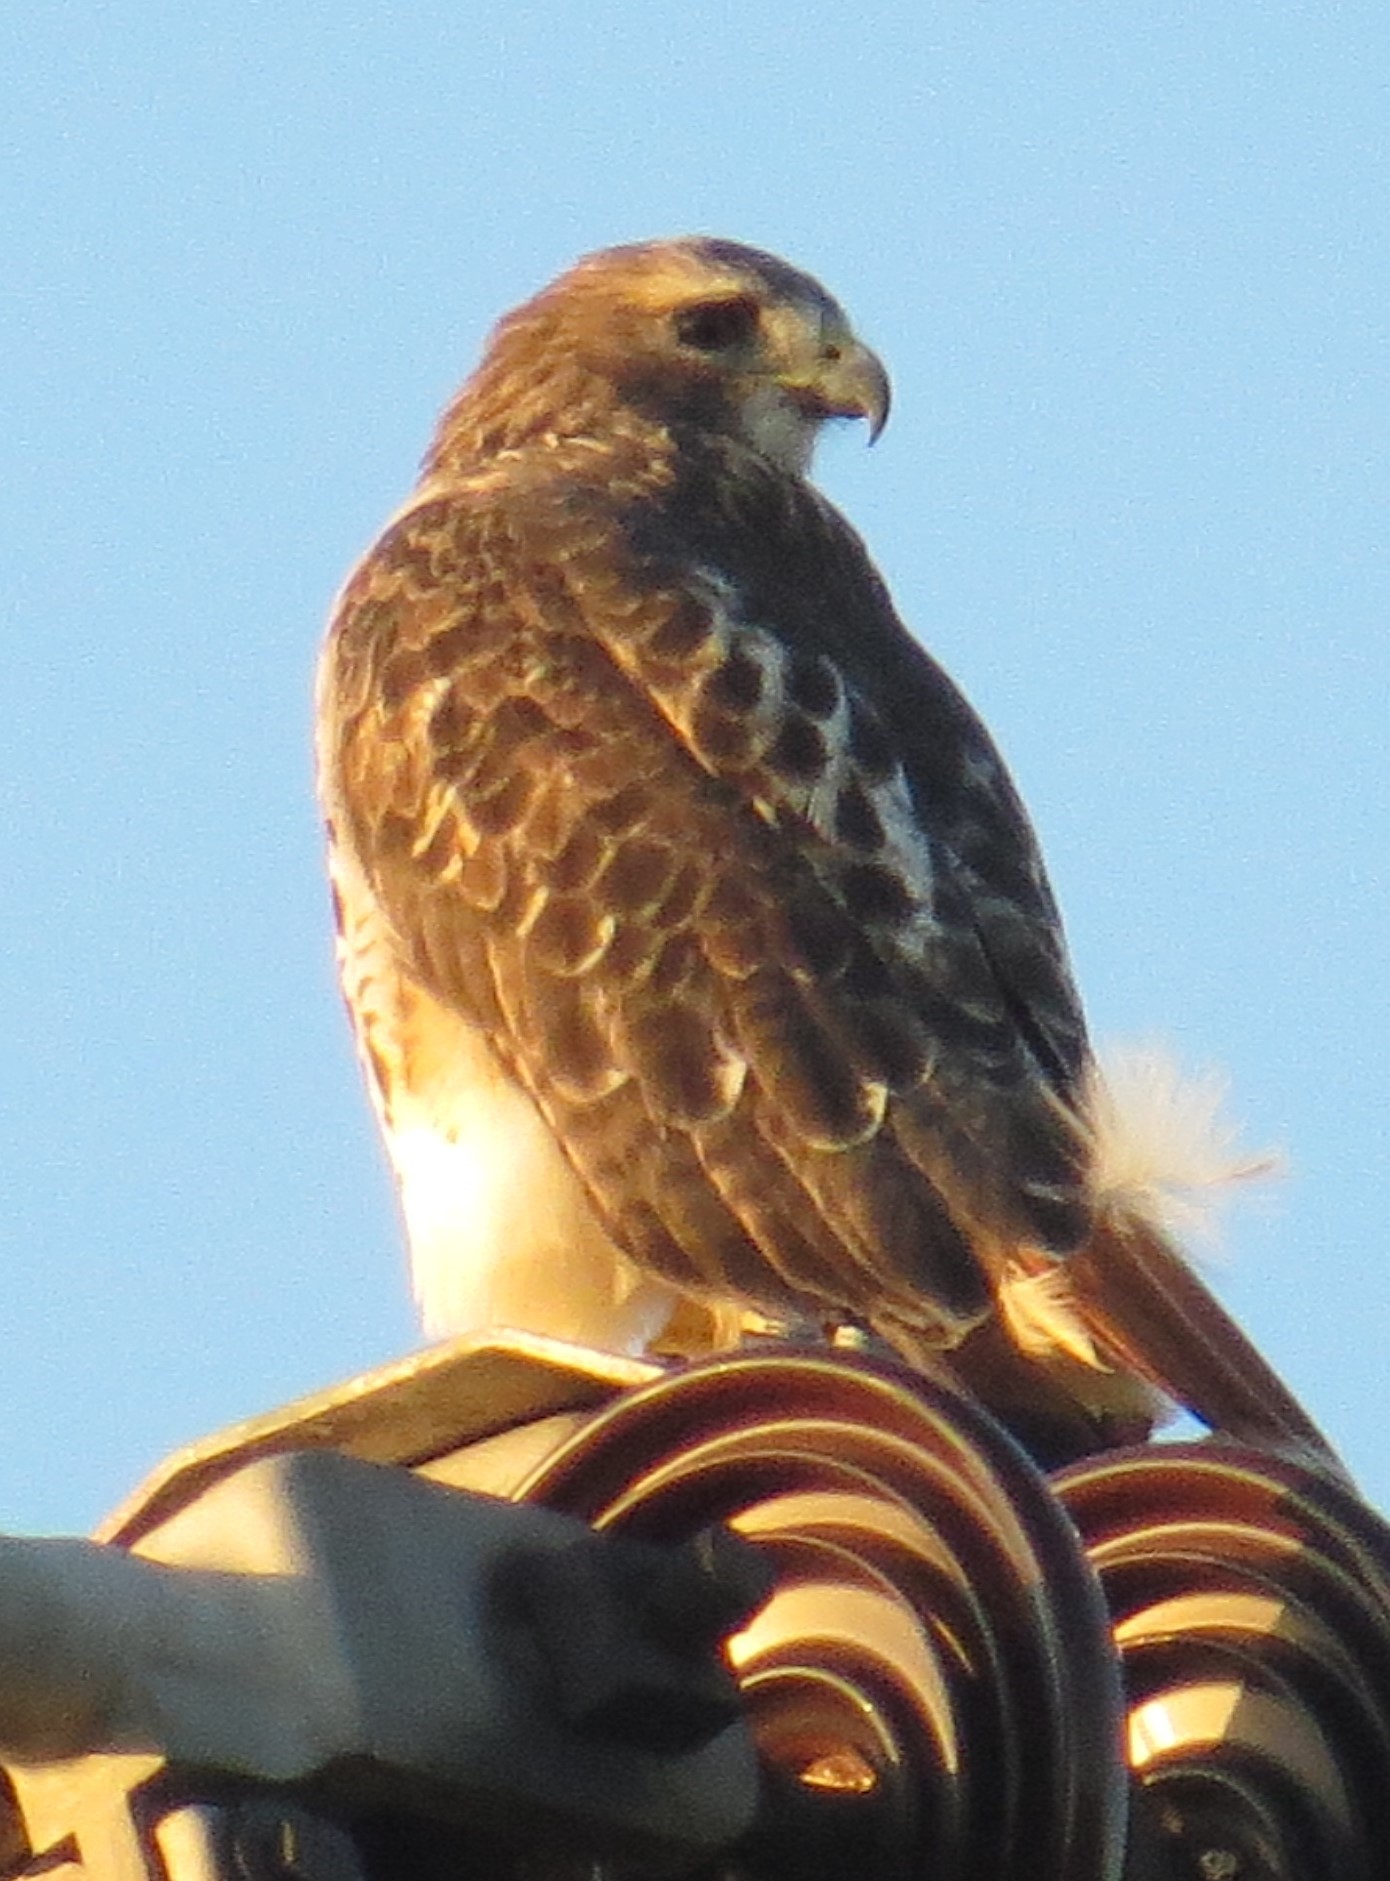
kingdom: Animalia
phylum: Chordata
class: Aves
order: Accipitriformes
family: Accipitridae
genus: Buteo
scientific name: Buteo jamaicensis
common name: Red-tailed hawk
